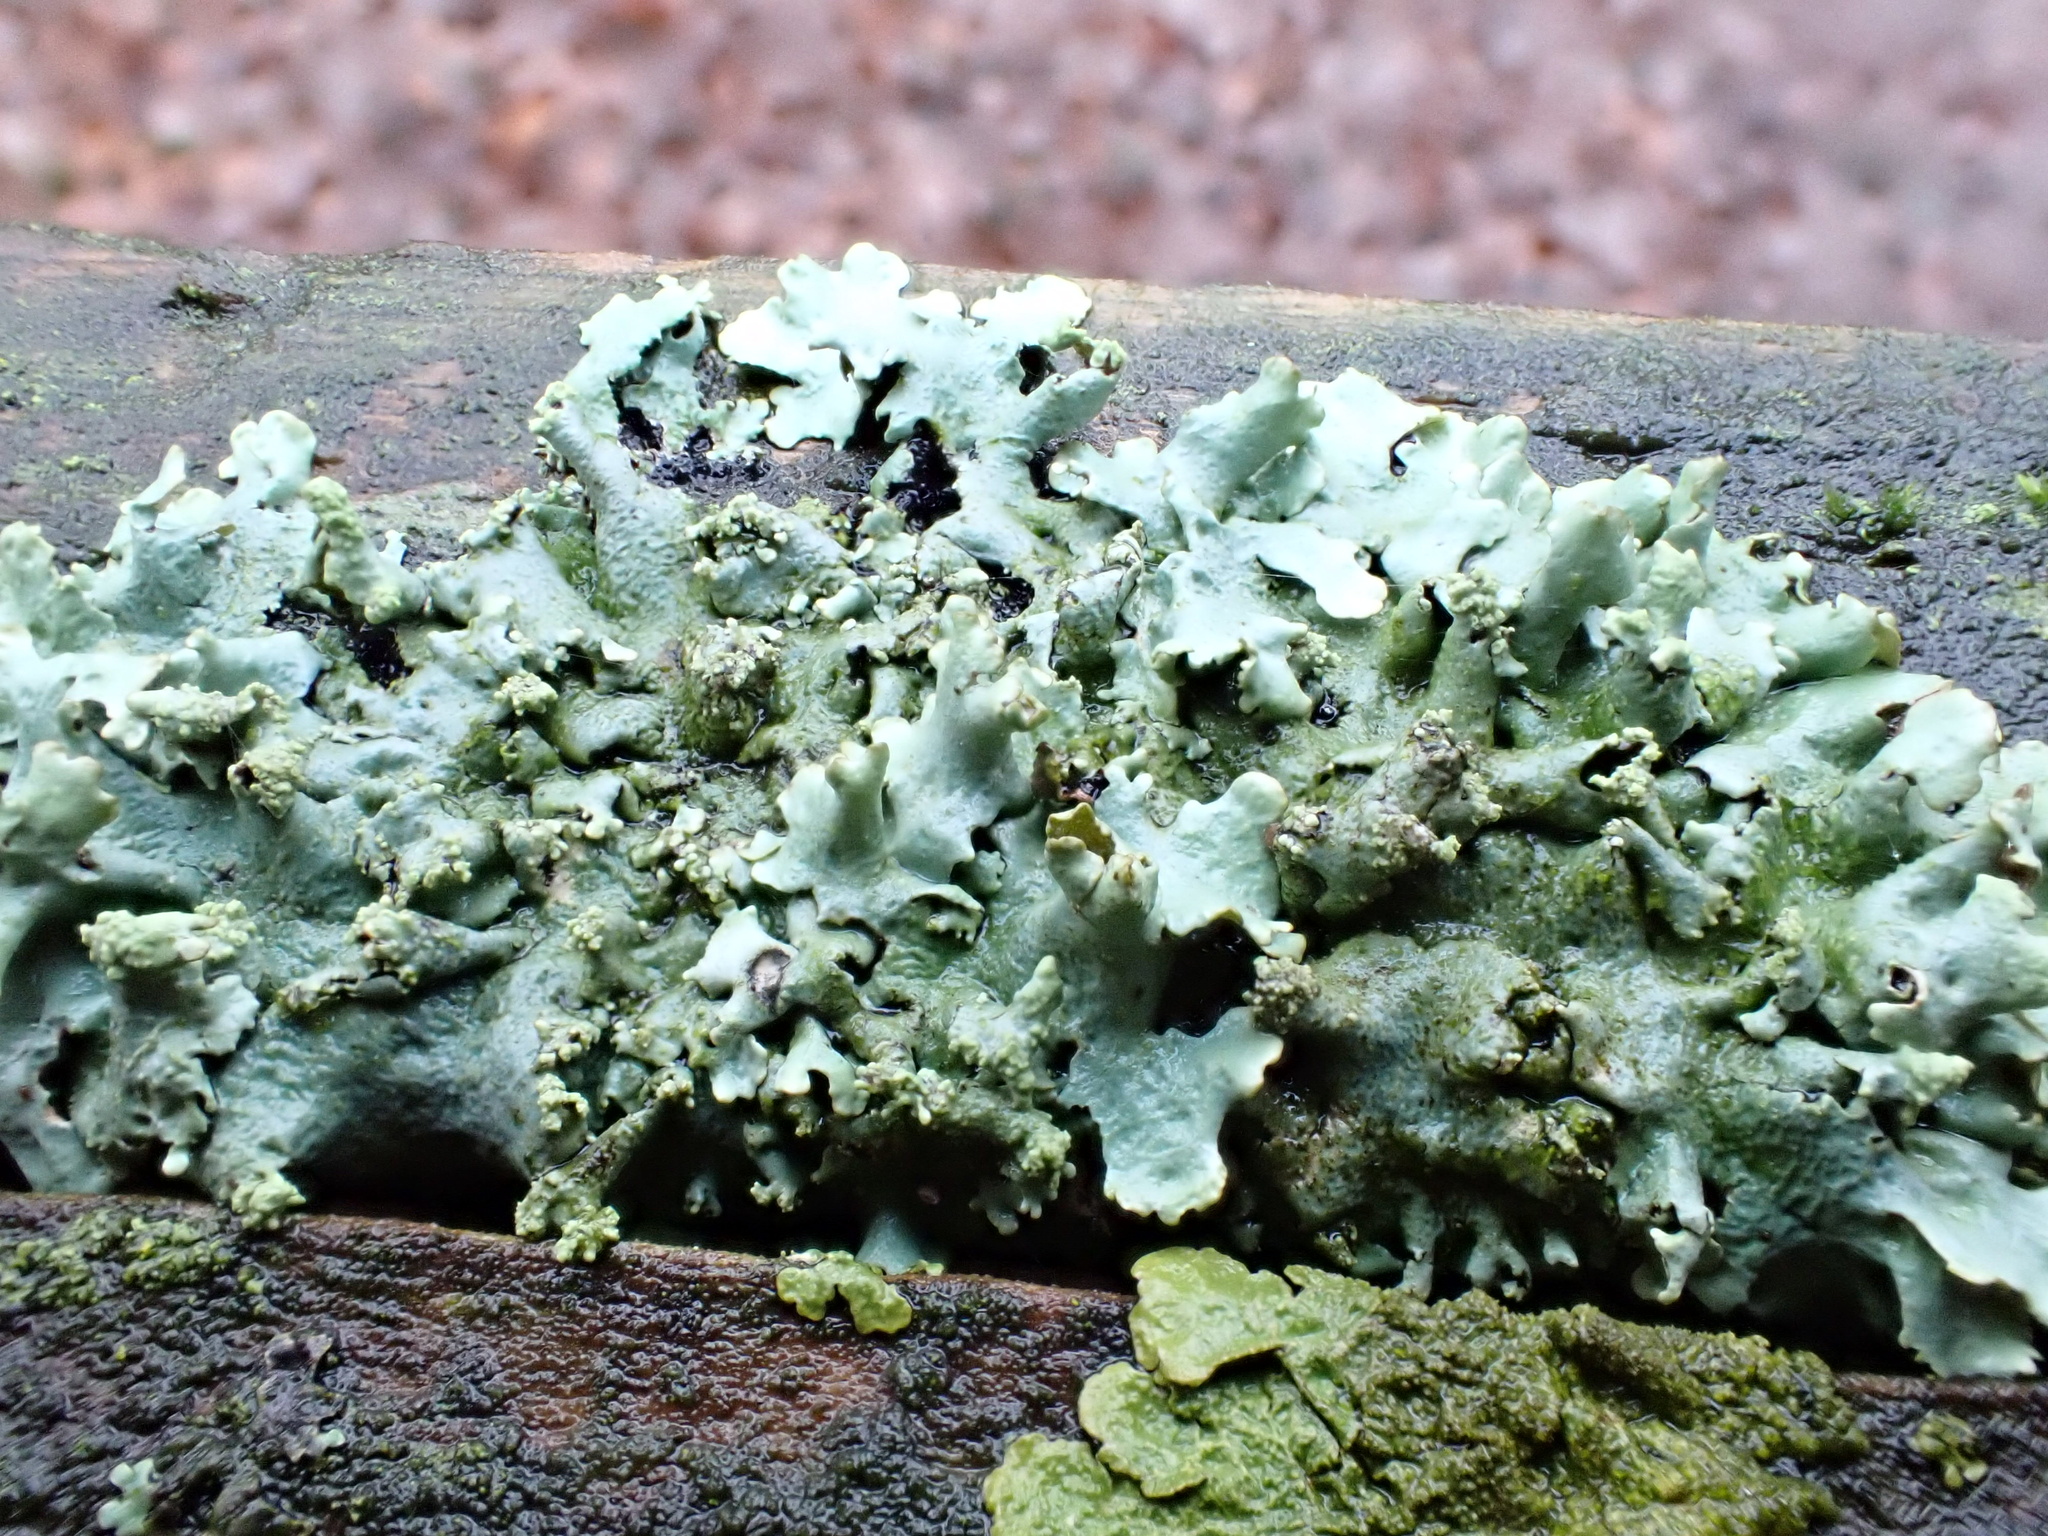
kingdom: Fungi
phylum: Ascomycota
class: Lecanoromycetes
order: Lecanorales
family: Parmeliaceae
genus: Hypotrachyna
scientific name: Hypotrachyna afrorevoluta
